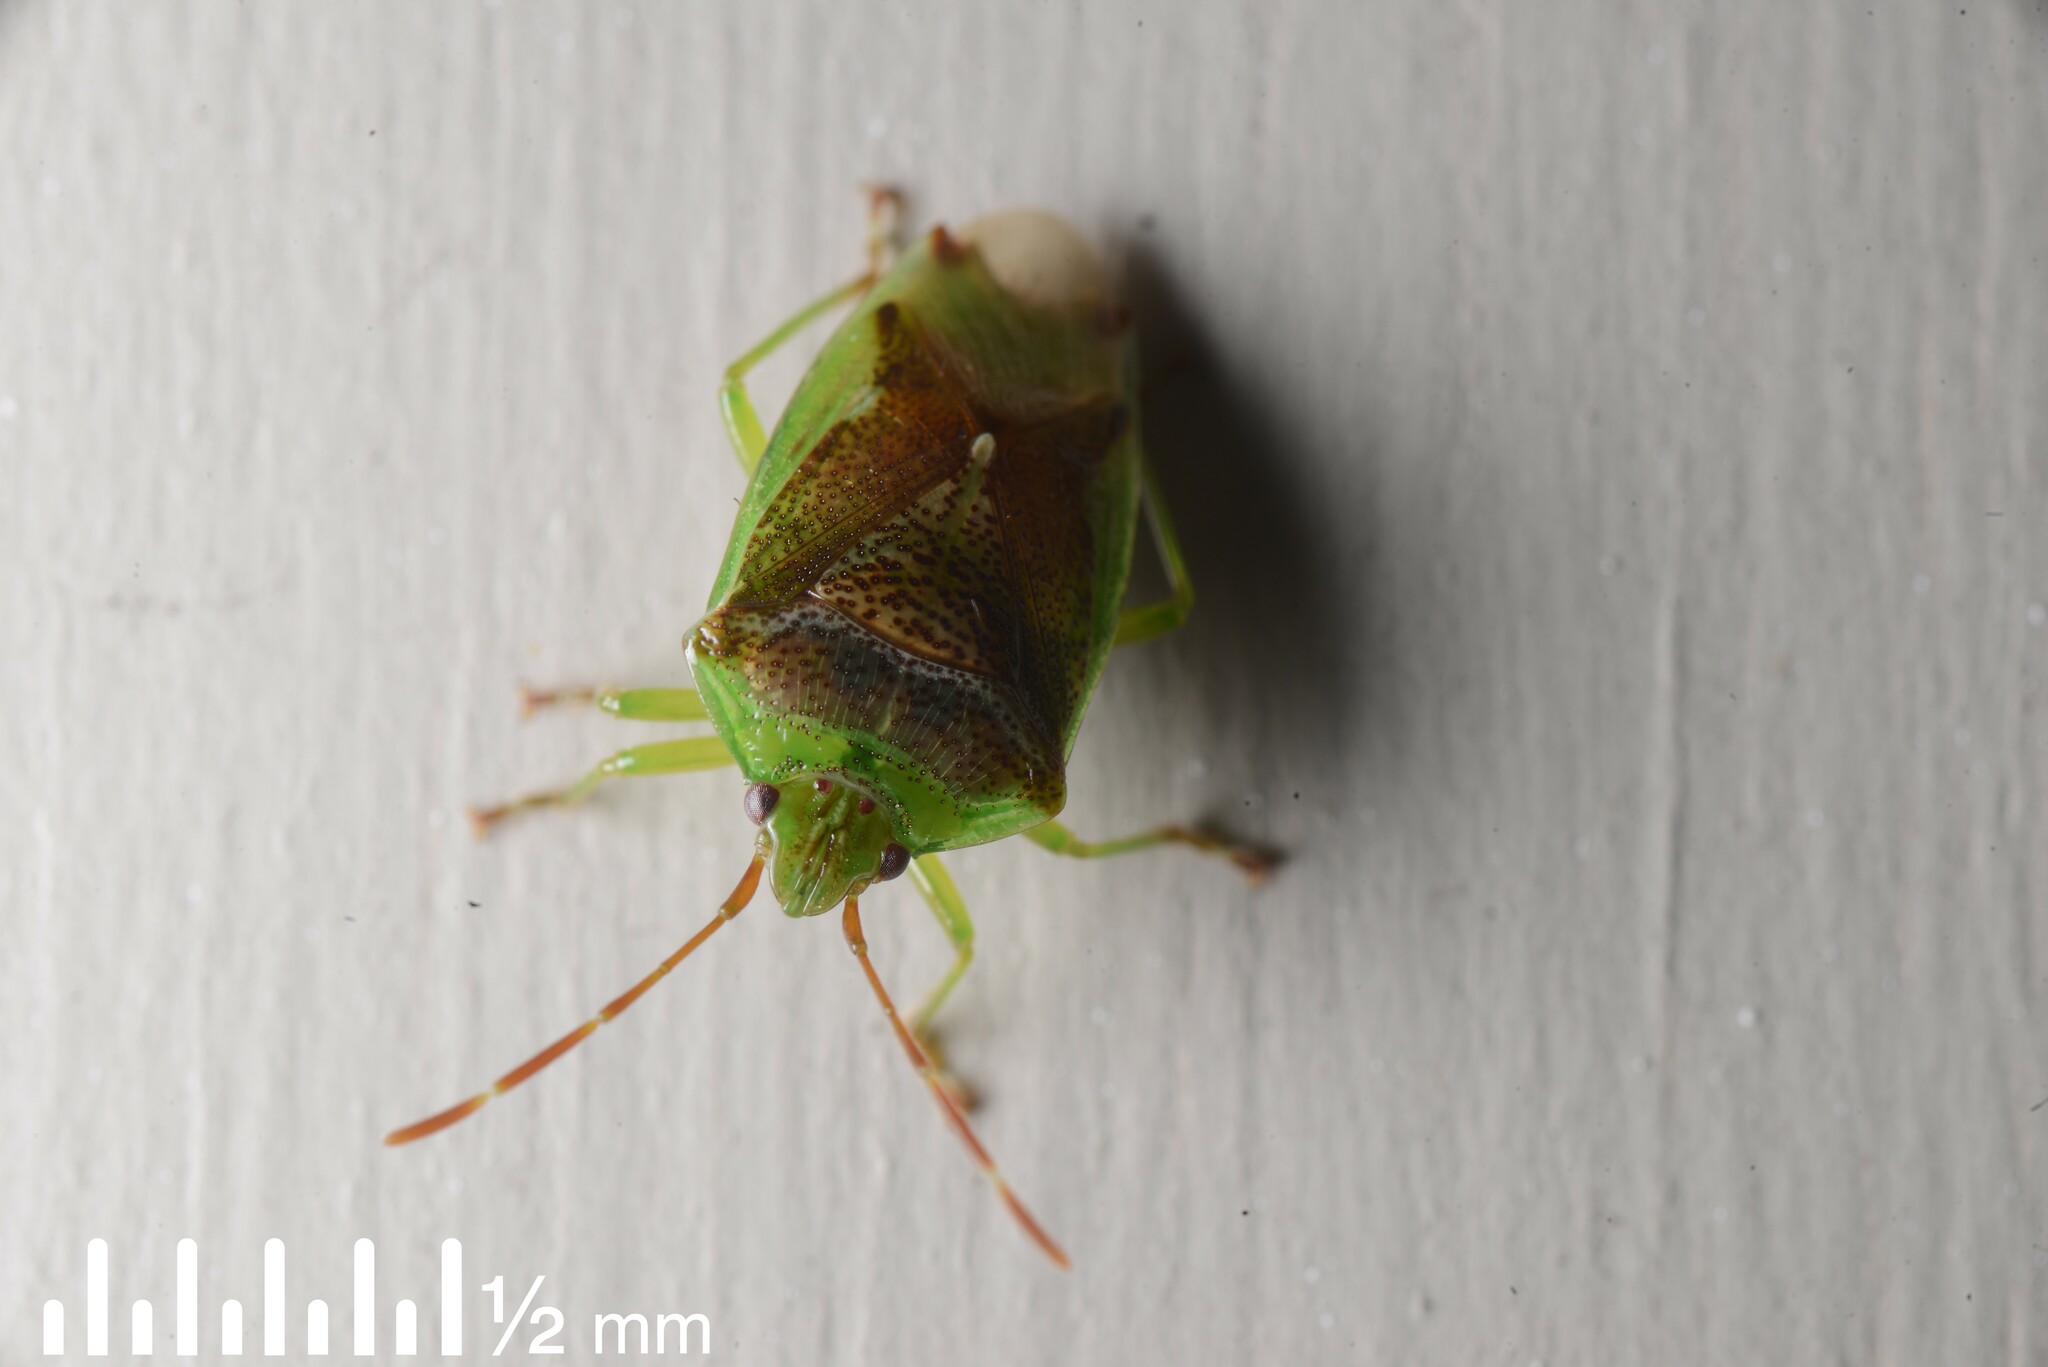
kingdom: Animalia
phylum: Arthropoda
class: Insecta
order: Hemiptera
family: Acanthosomatidae
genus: Oncacontias
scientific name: Oncacontias vittatus
